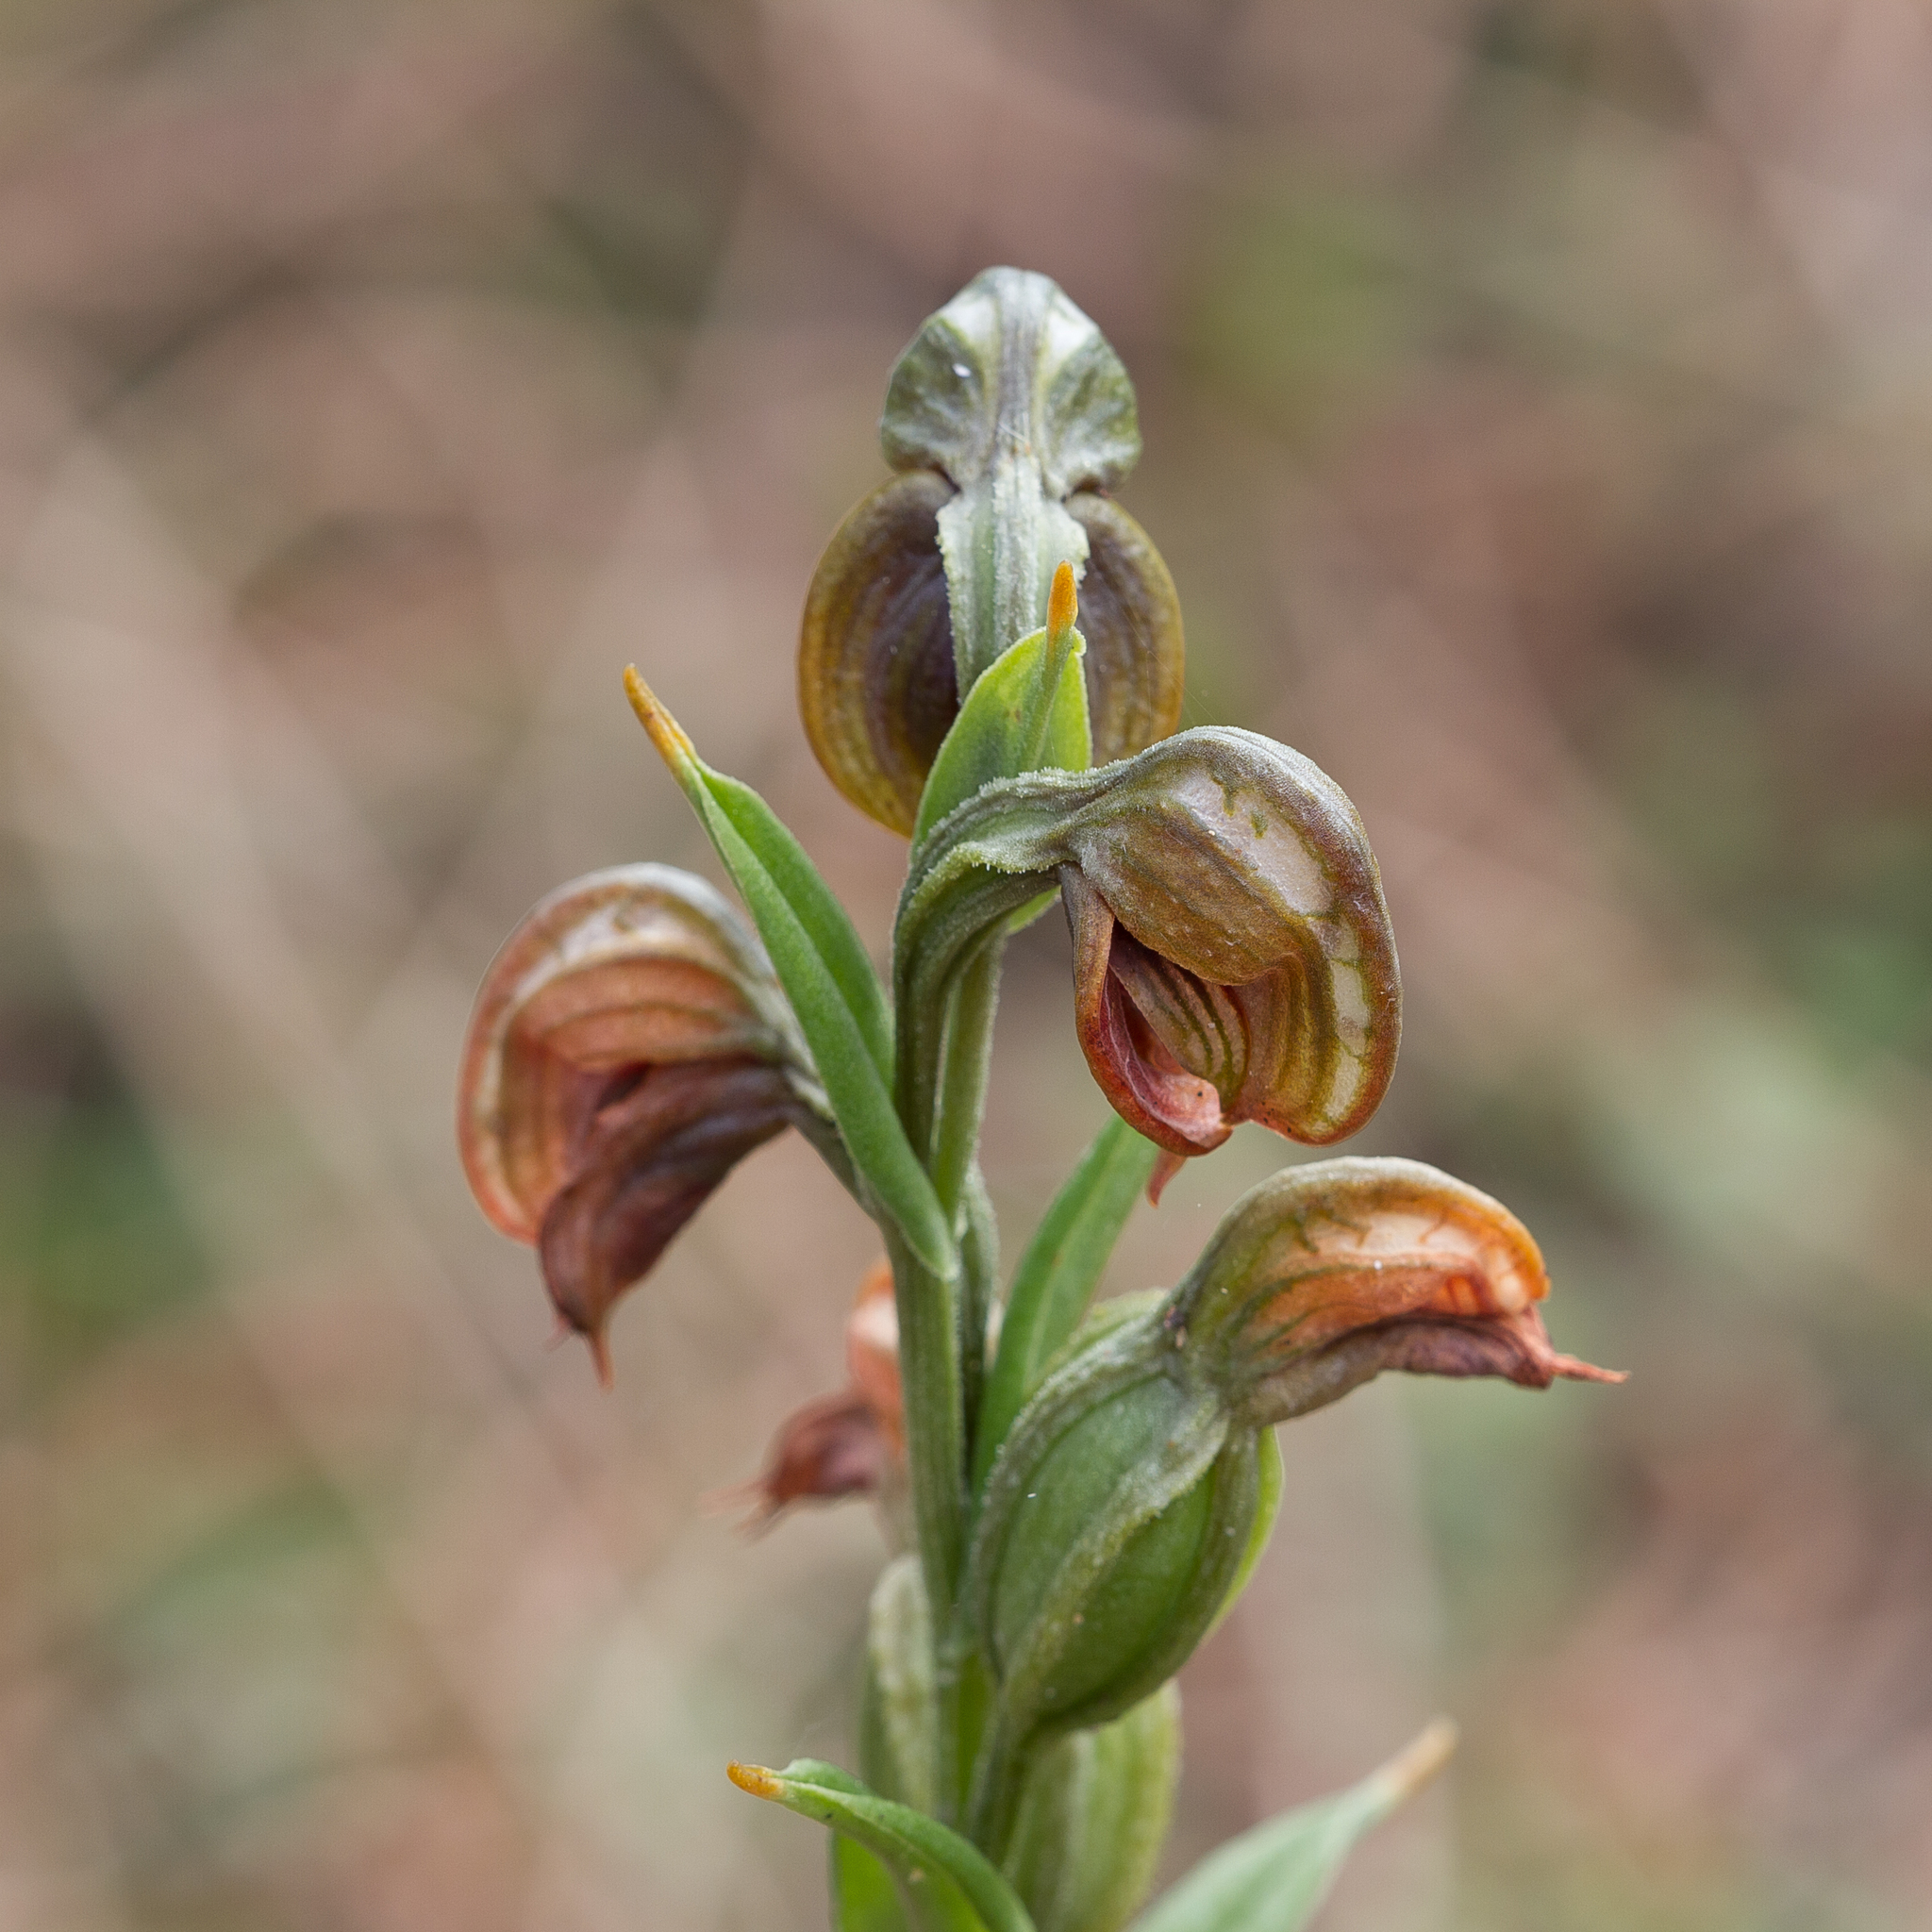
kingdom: Plantae
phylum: Tracheophyta
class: Liliopsida
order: Asparagales
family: Orchidaceae
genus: Pterostylis
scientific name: Pterostylis sanguinea
